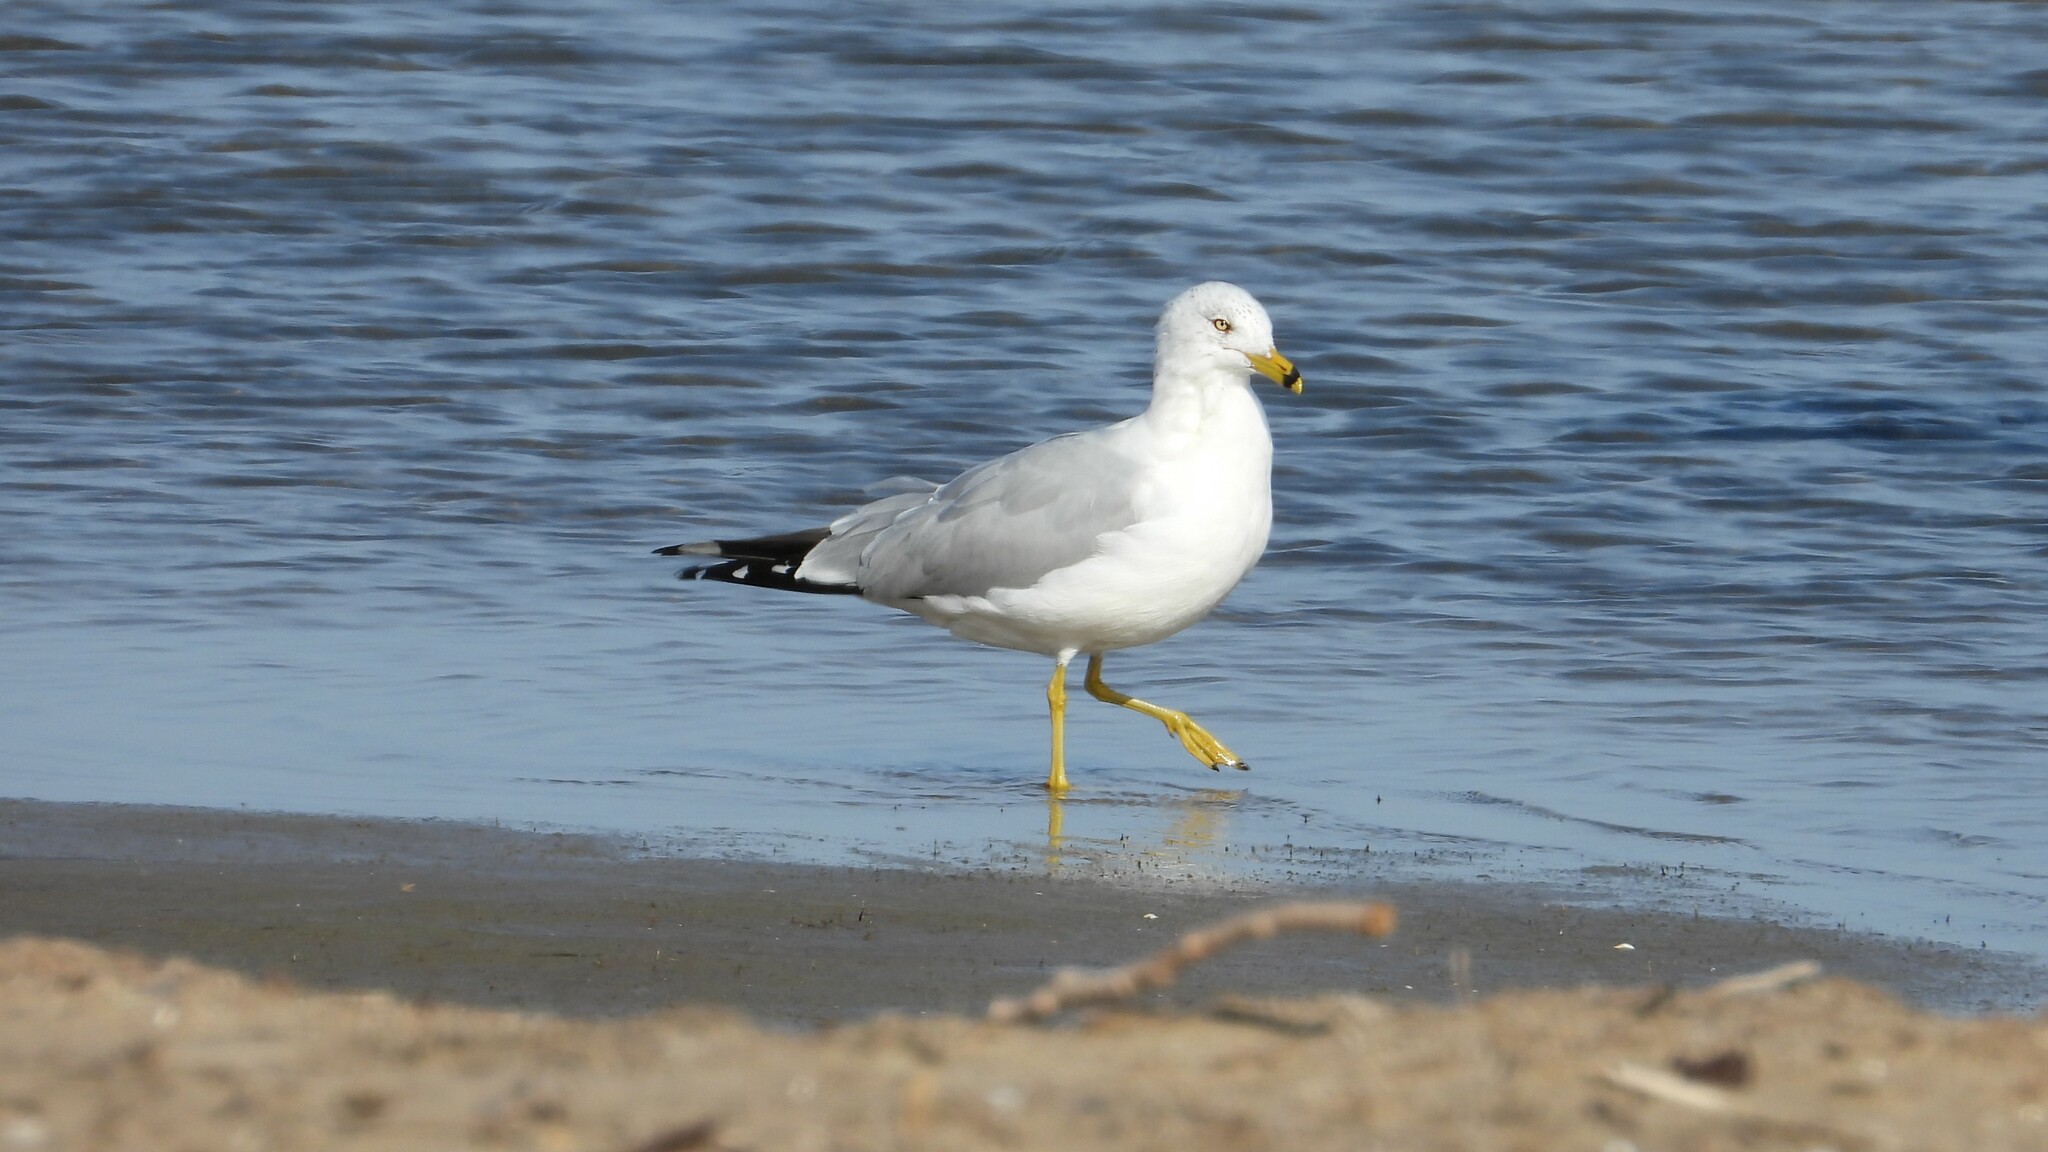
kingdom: Animalia
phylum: Chordata
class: Aves
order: Charadriiformes
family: Laridae
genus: Larus
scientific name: Larus delawarensis
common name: Ring-billed gull
